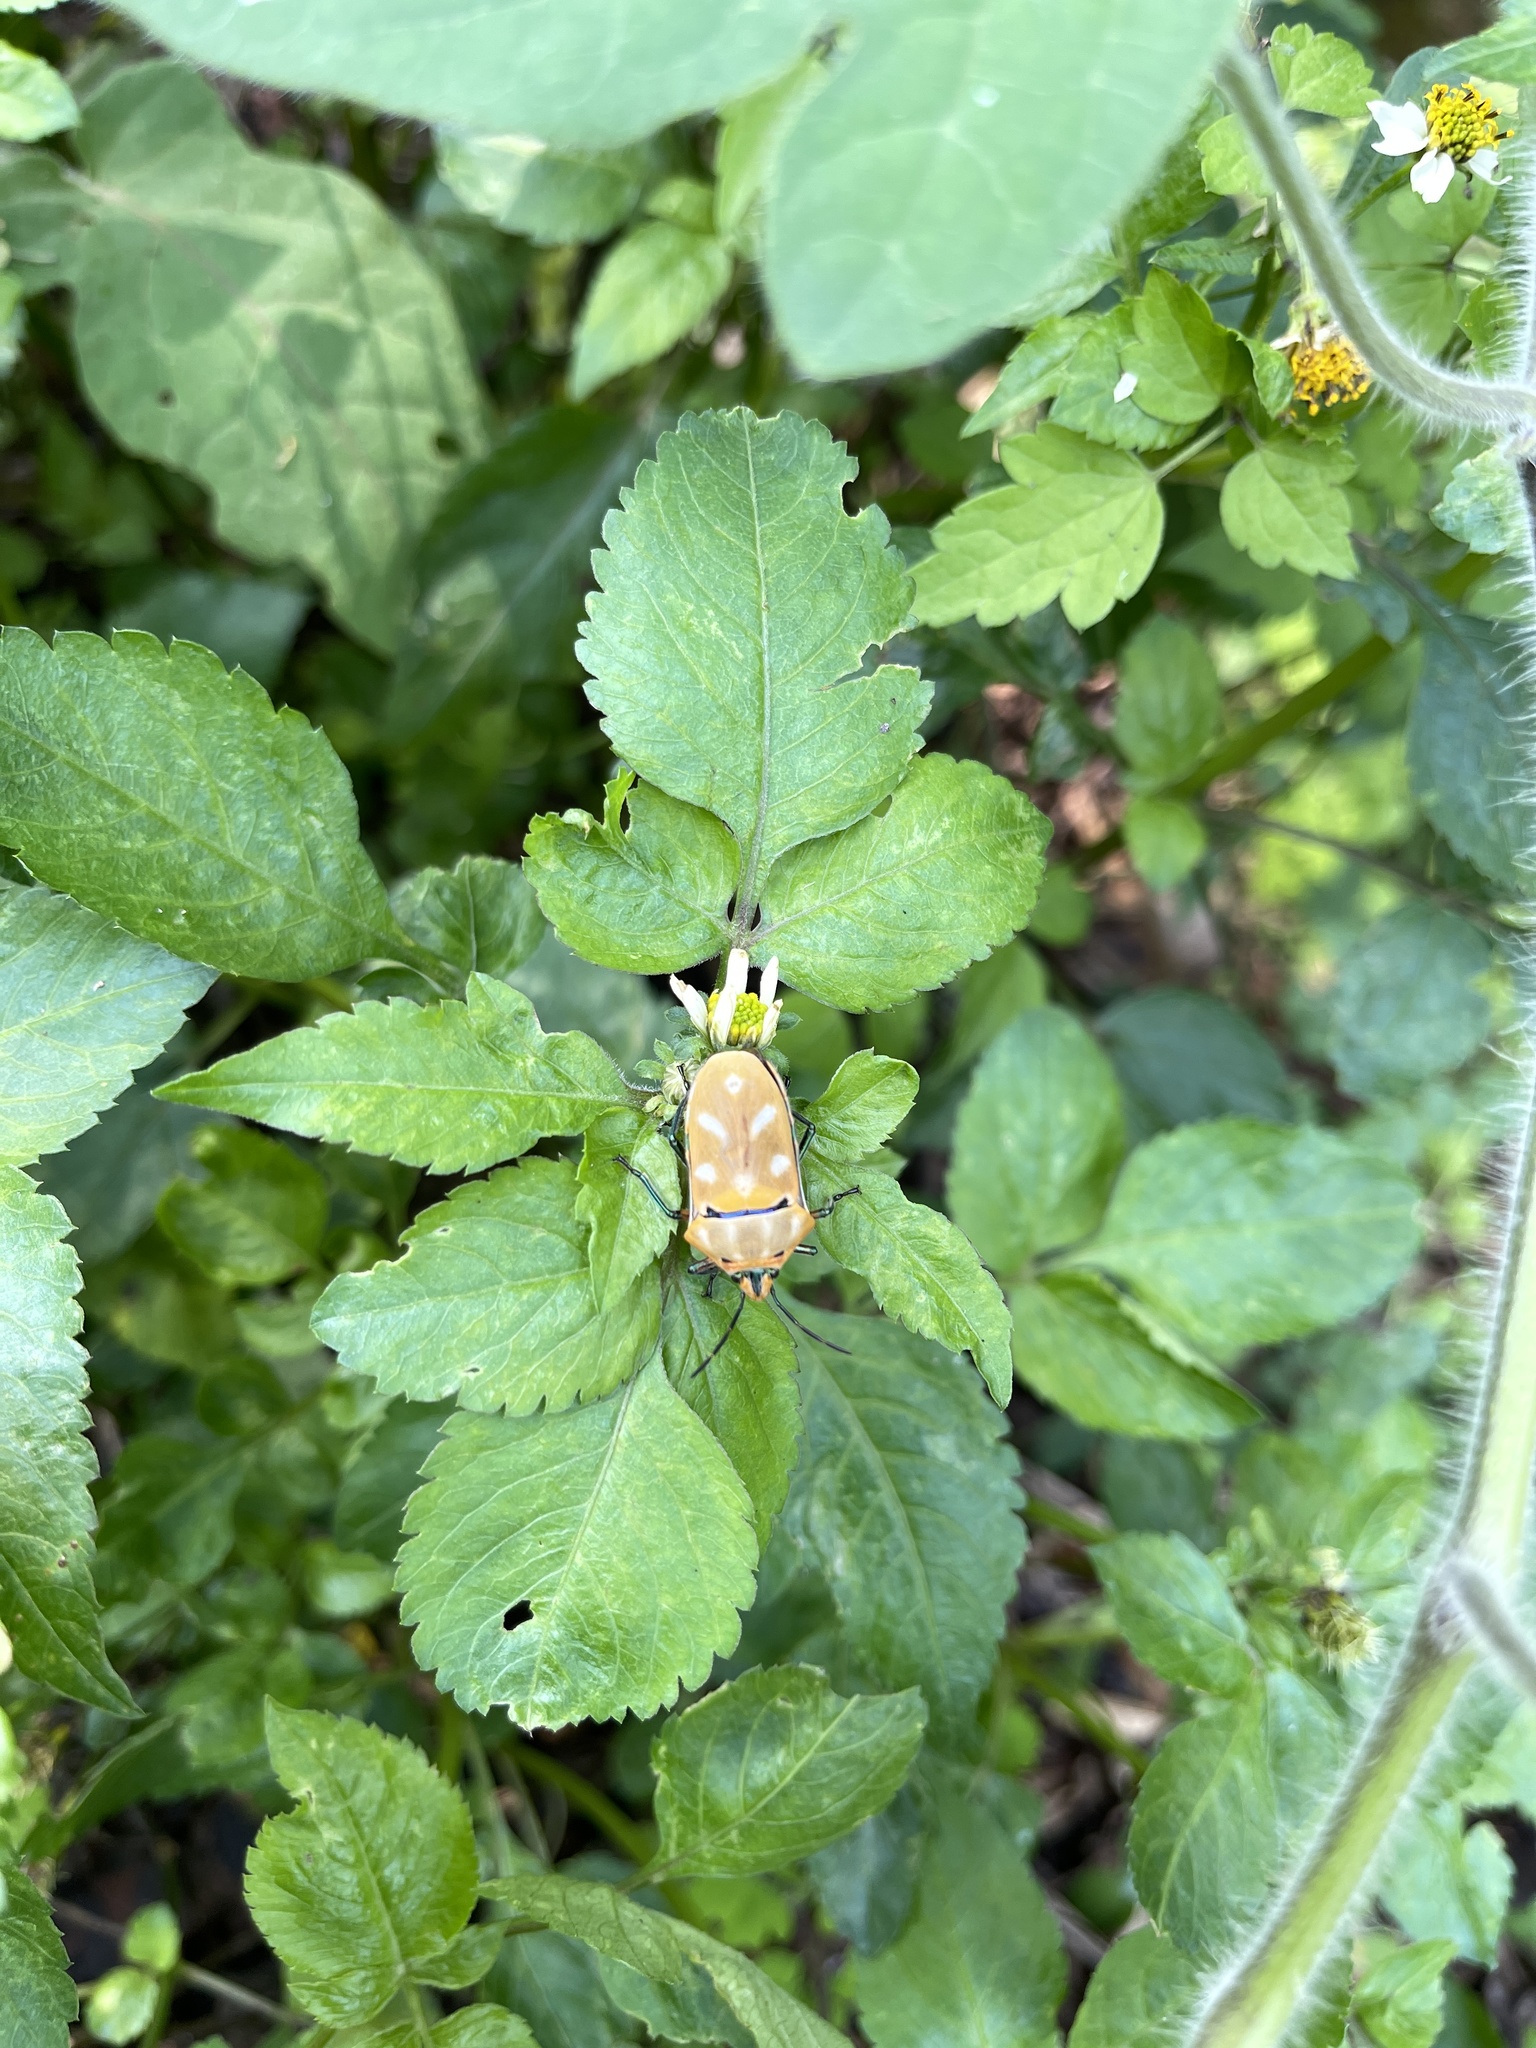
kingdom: Animalia
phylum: Arthropoda
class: Insecta
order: Hemiptera
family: Scutelleridae
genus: Cantao
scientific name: Cantao ocellatus
